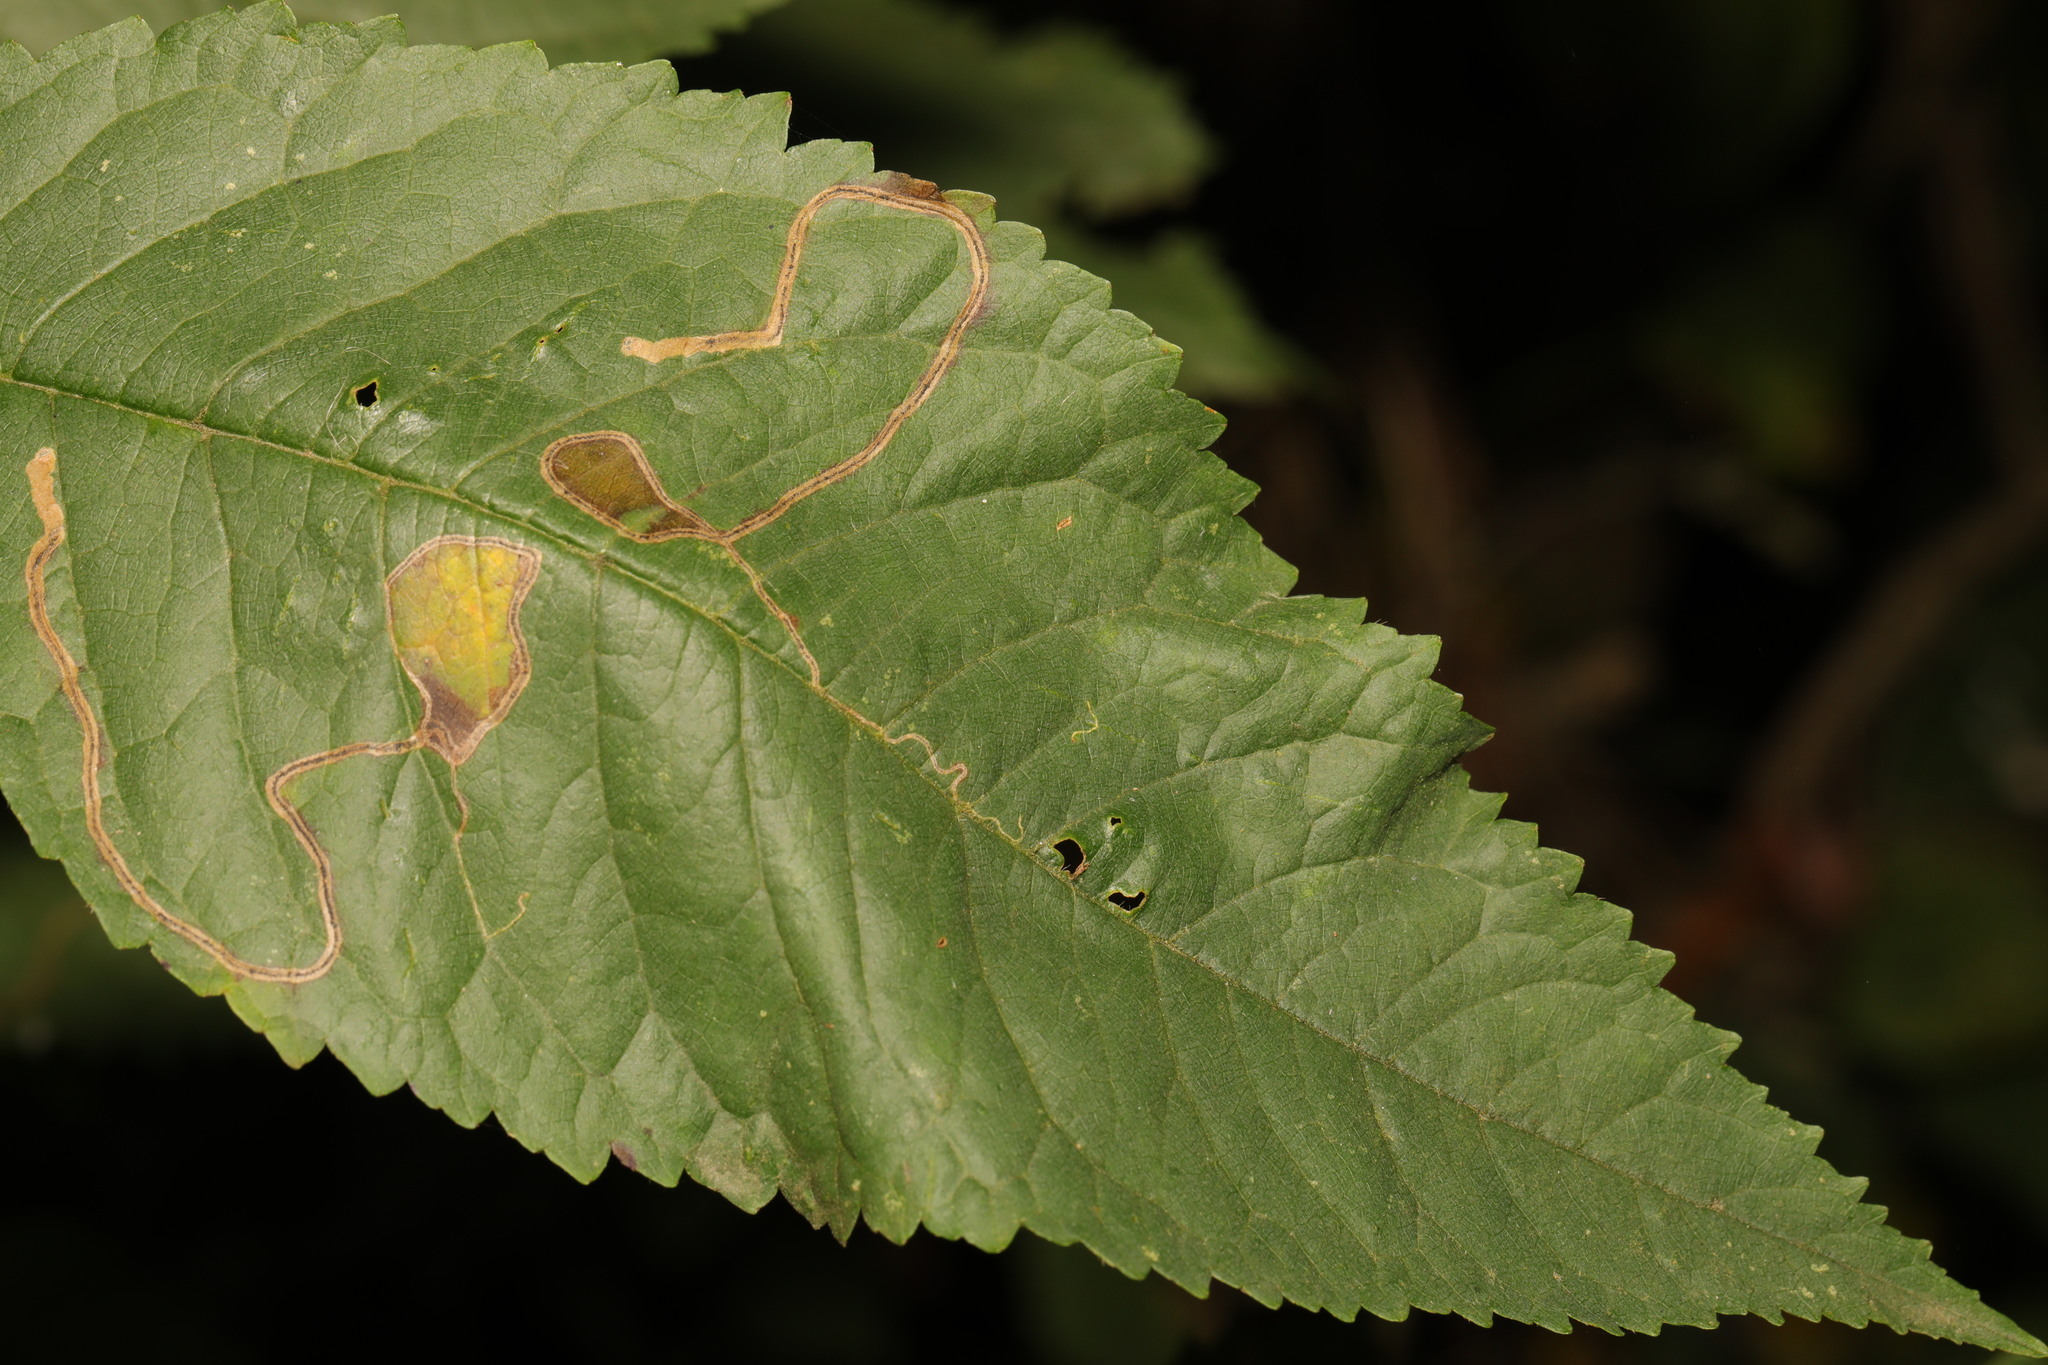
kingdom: Animalia
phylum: Arthropoda
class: Insecta
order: Lepidoptera
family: Lyonetiidae
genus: Lyonetia
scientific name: Lyonetia clerkella
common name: Apple leaf miner
